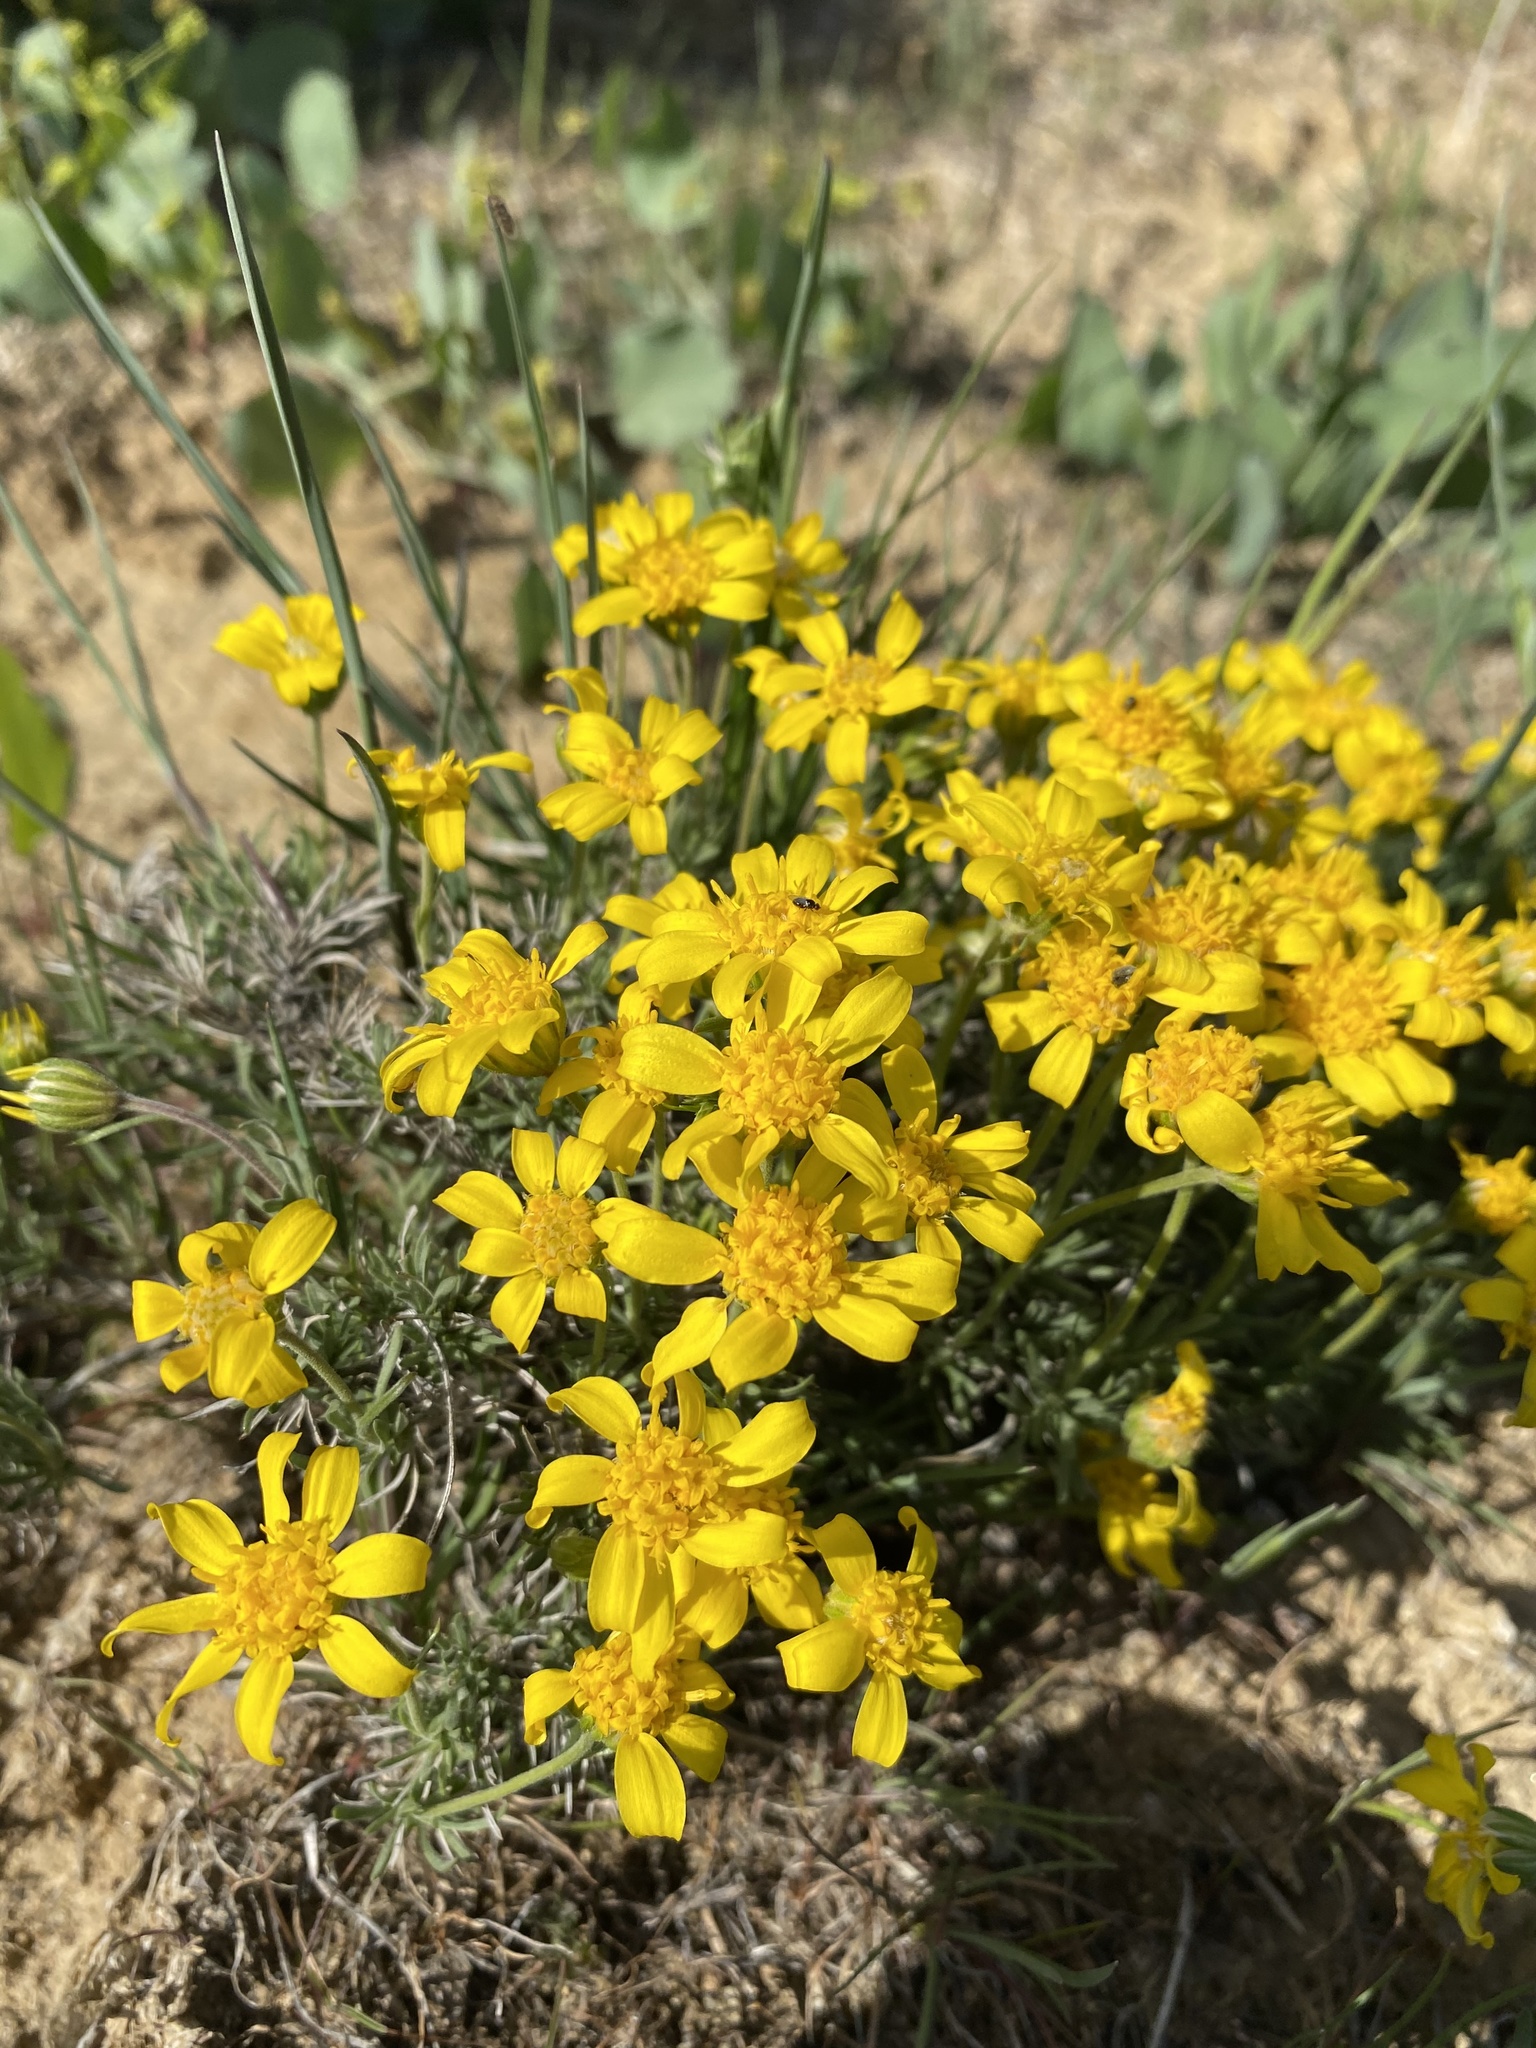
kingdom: Plantae
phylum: Tracheophyta
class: Magnoliopsida
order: Asterales
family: Asteraceae
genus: Nestotus
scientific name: Nestotus stenophyllus
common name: Narrow-leaf mock goldenweed
